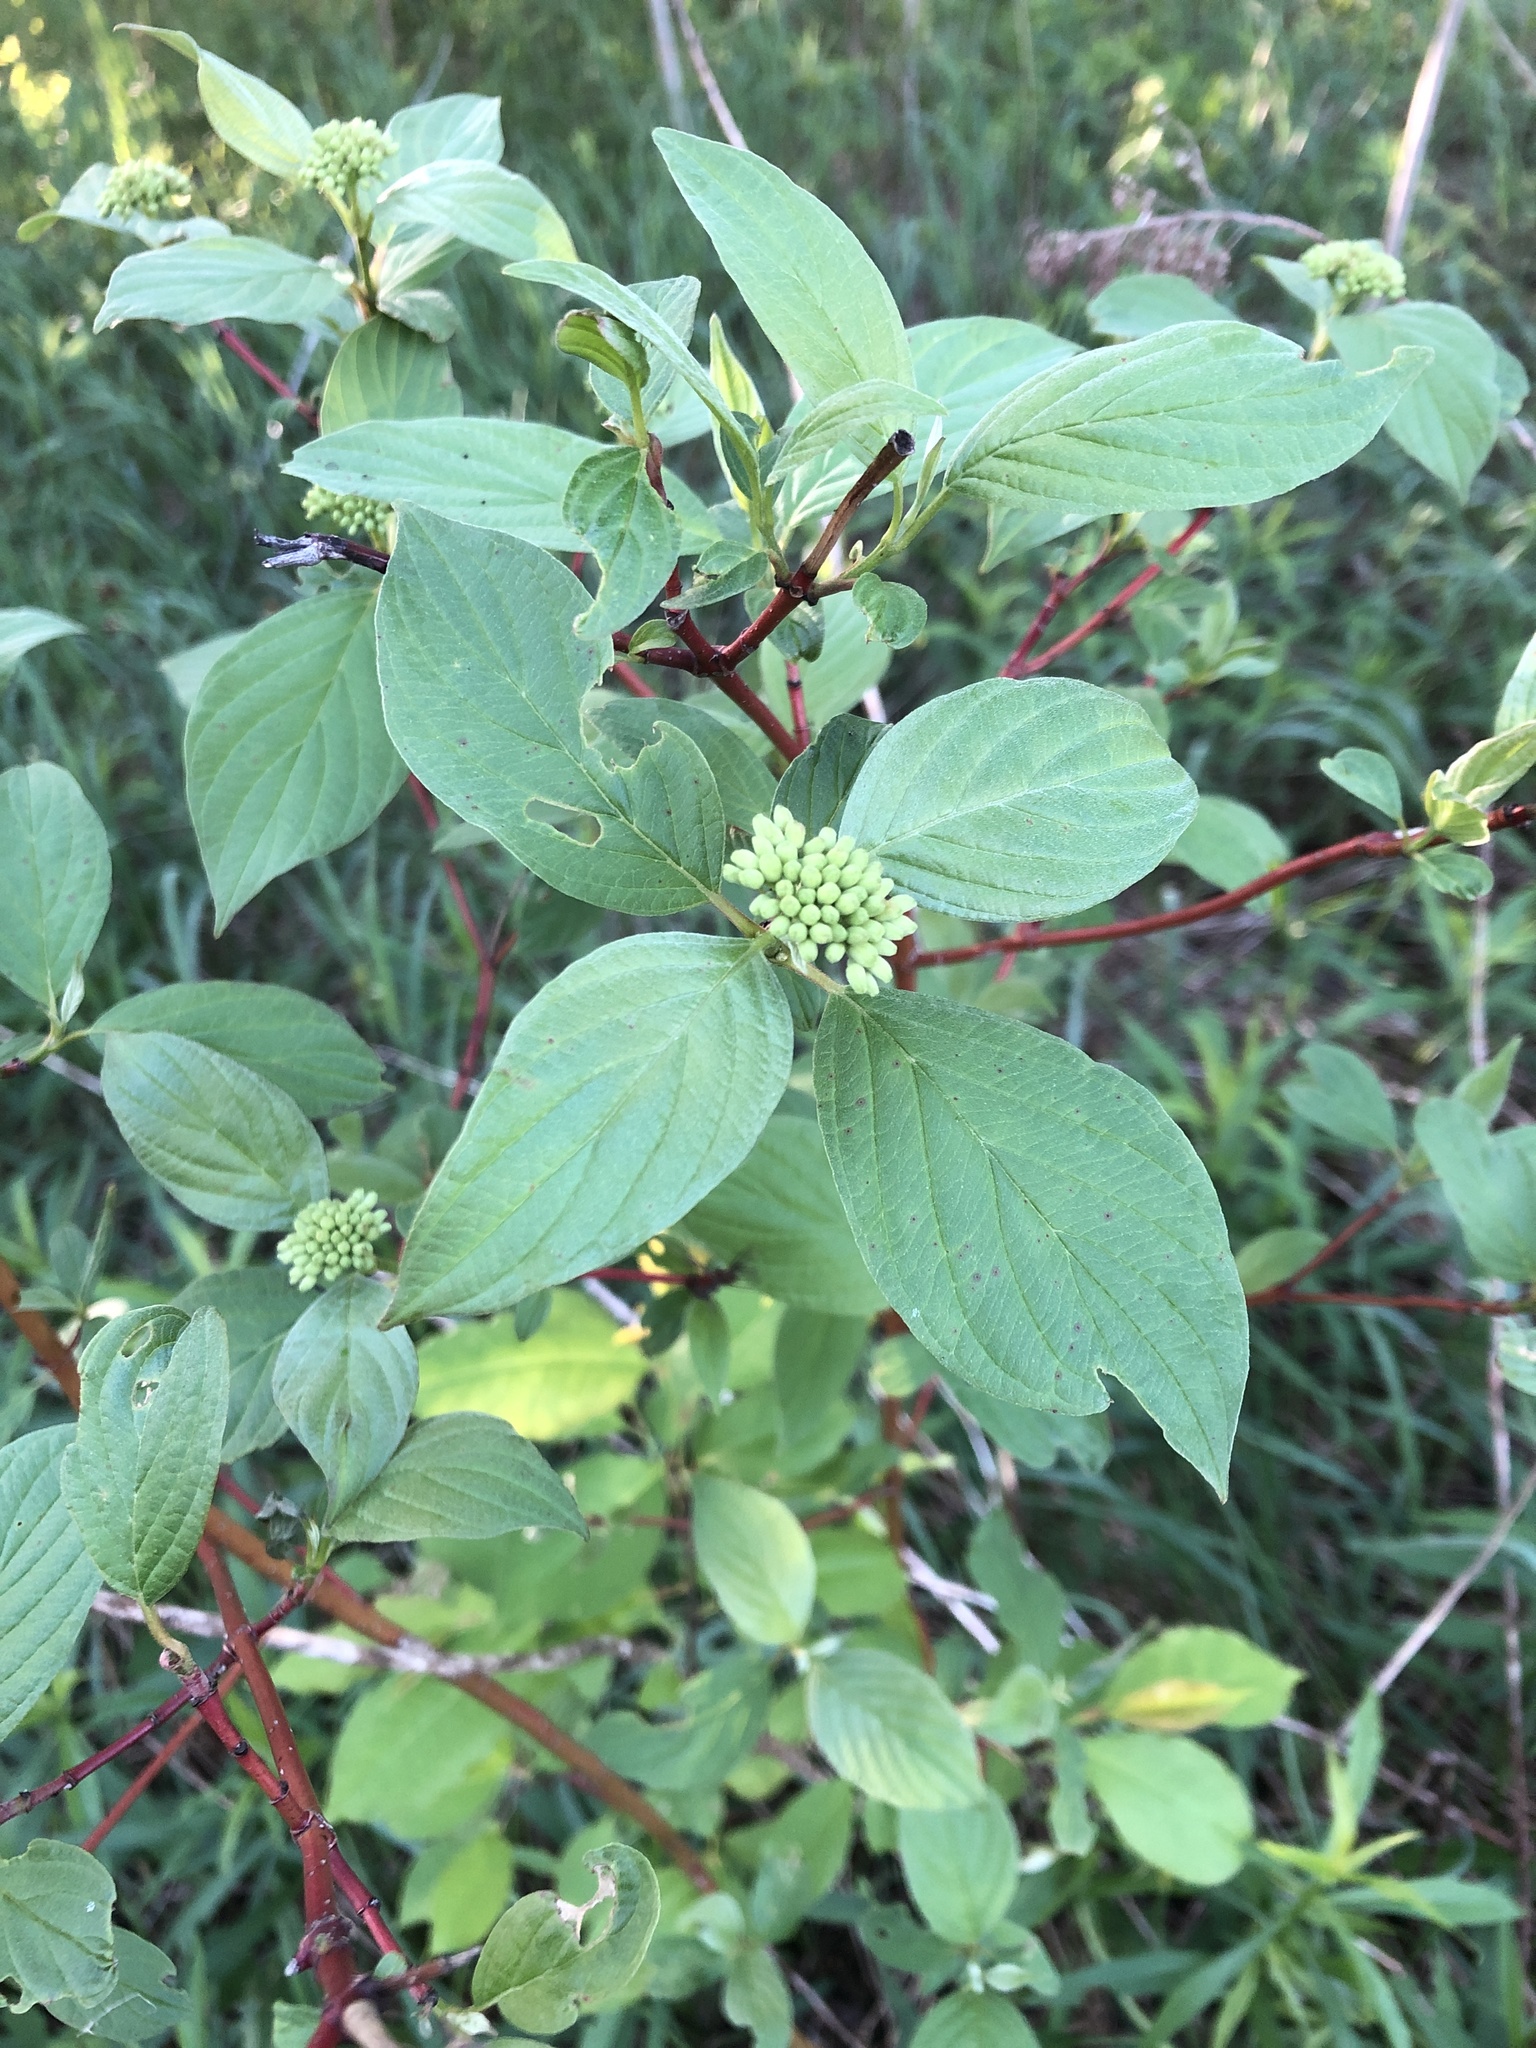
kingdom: Plantae
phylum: Tracheophyta
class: Magnoliopsida
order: Cornales
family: Cornaceae
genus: Cornus
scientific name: Cornus sericea
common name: Red-osier dogwood
